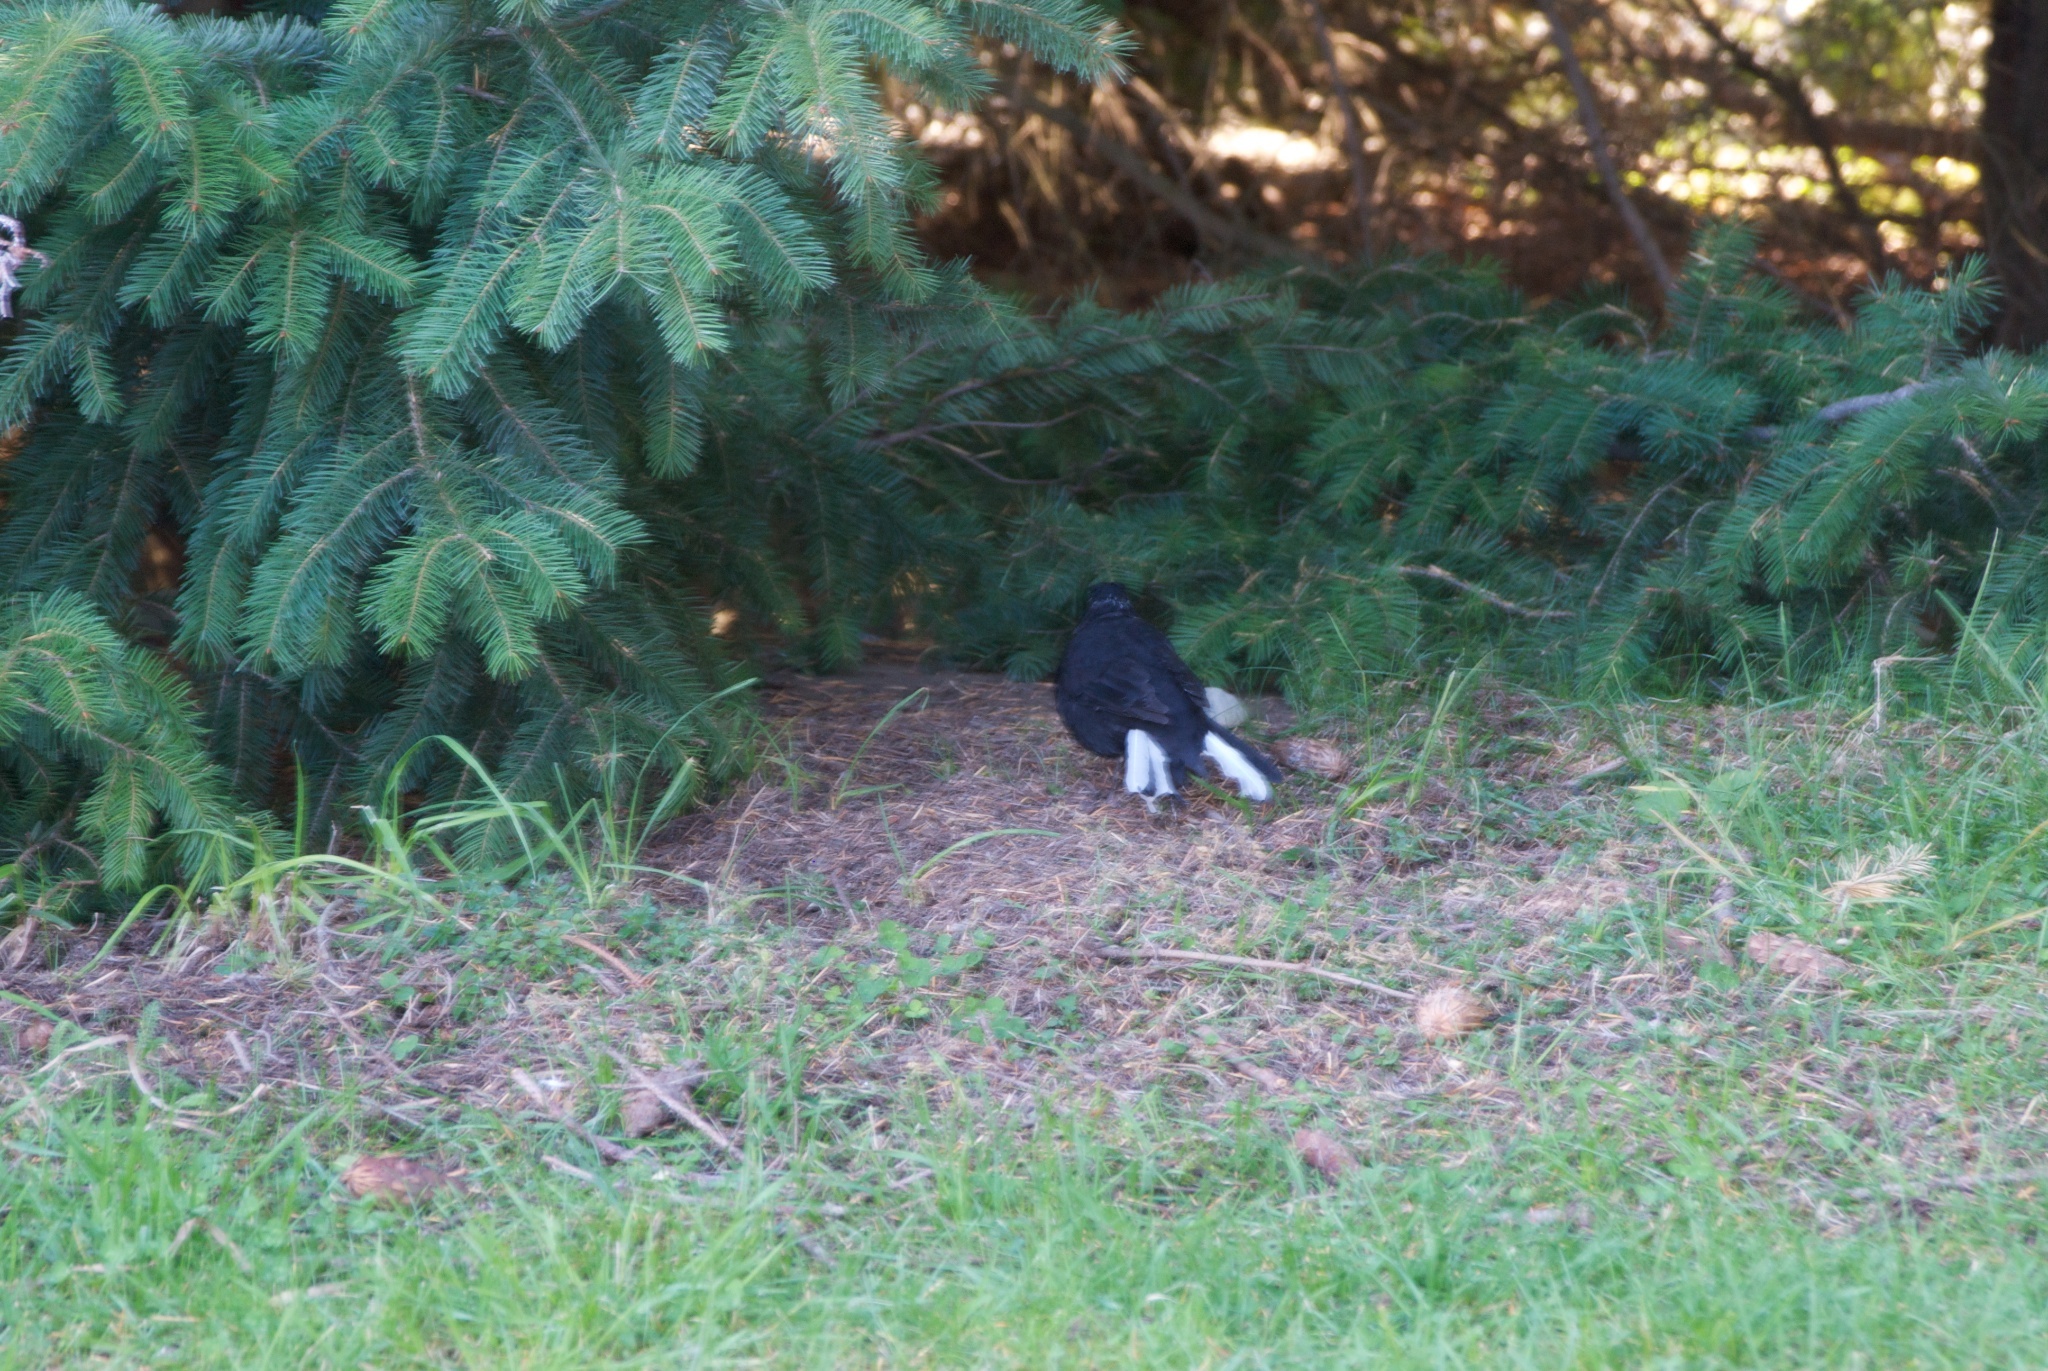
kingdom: Animalia
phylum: Chordata
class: Aves
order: Passeriformes
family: Turdidae
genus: Turdus
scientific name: Turdus merula
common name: Common blackbird
